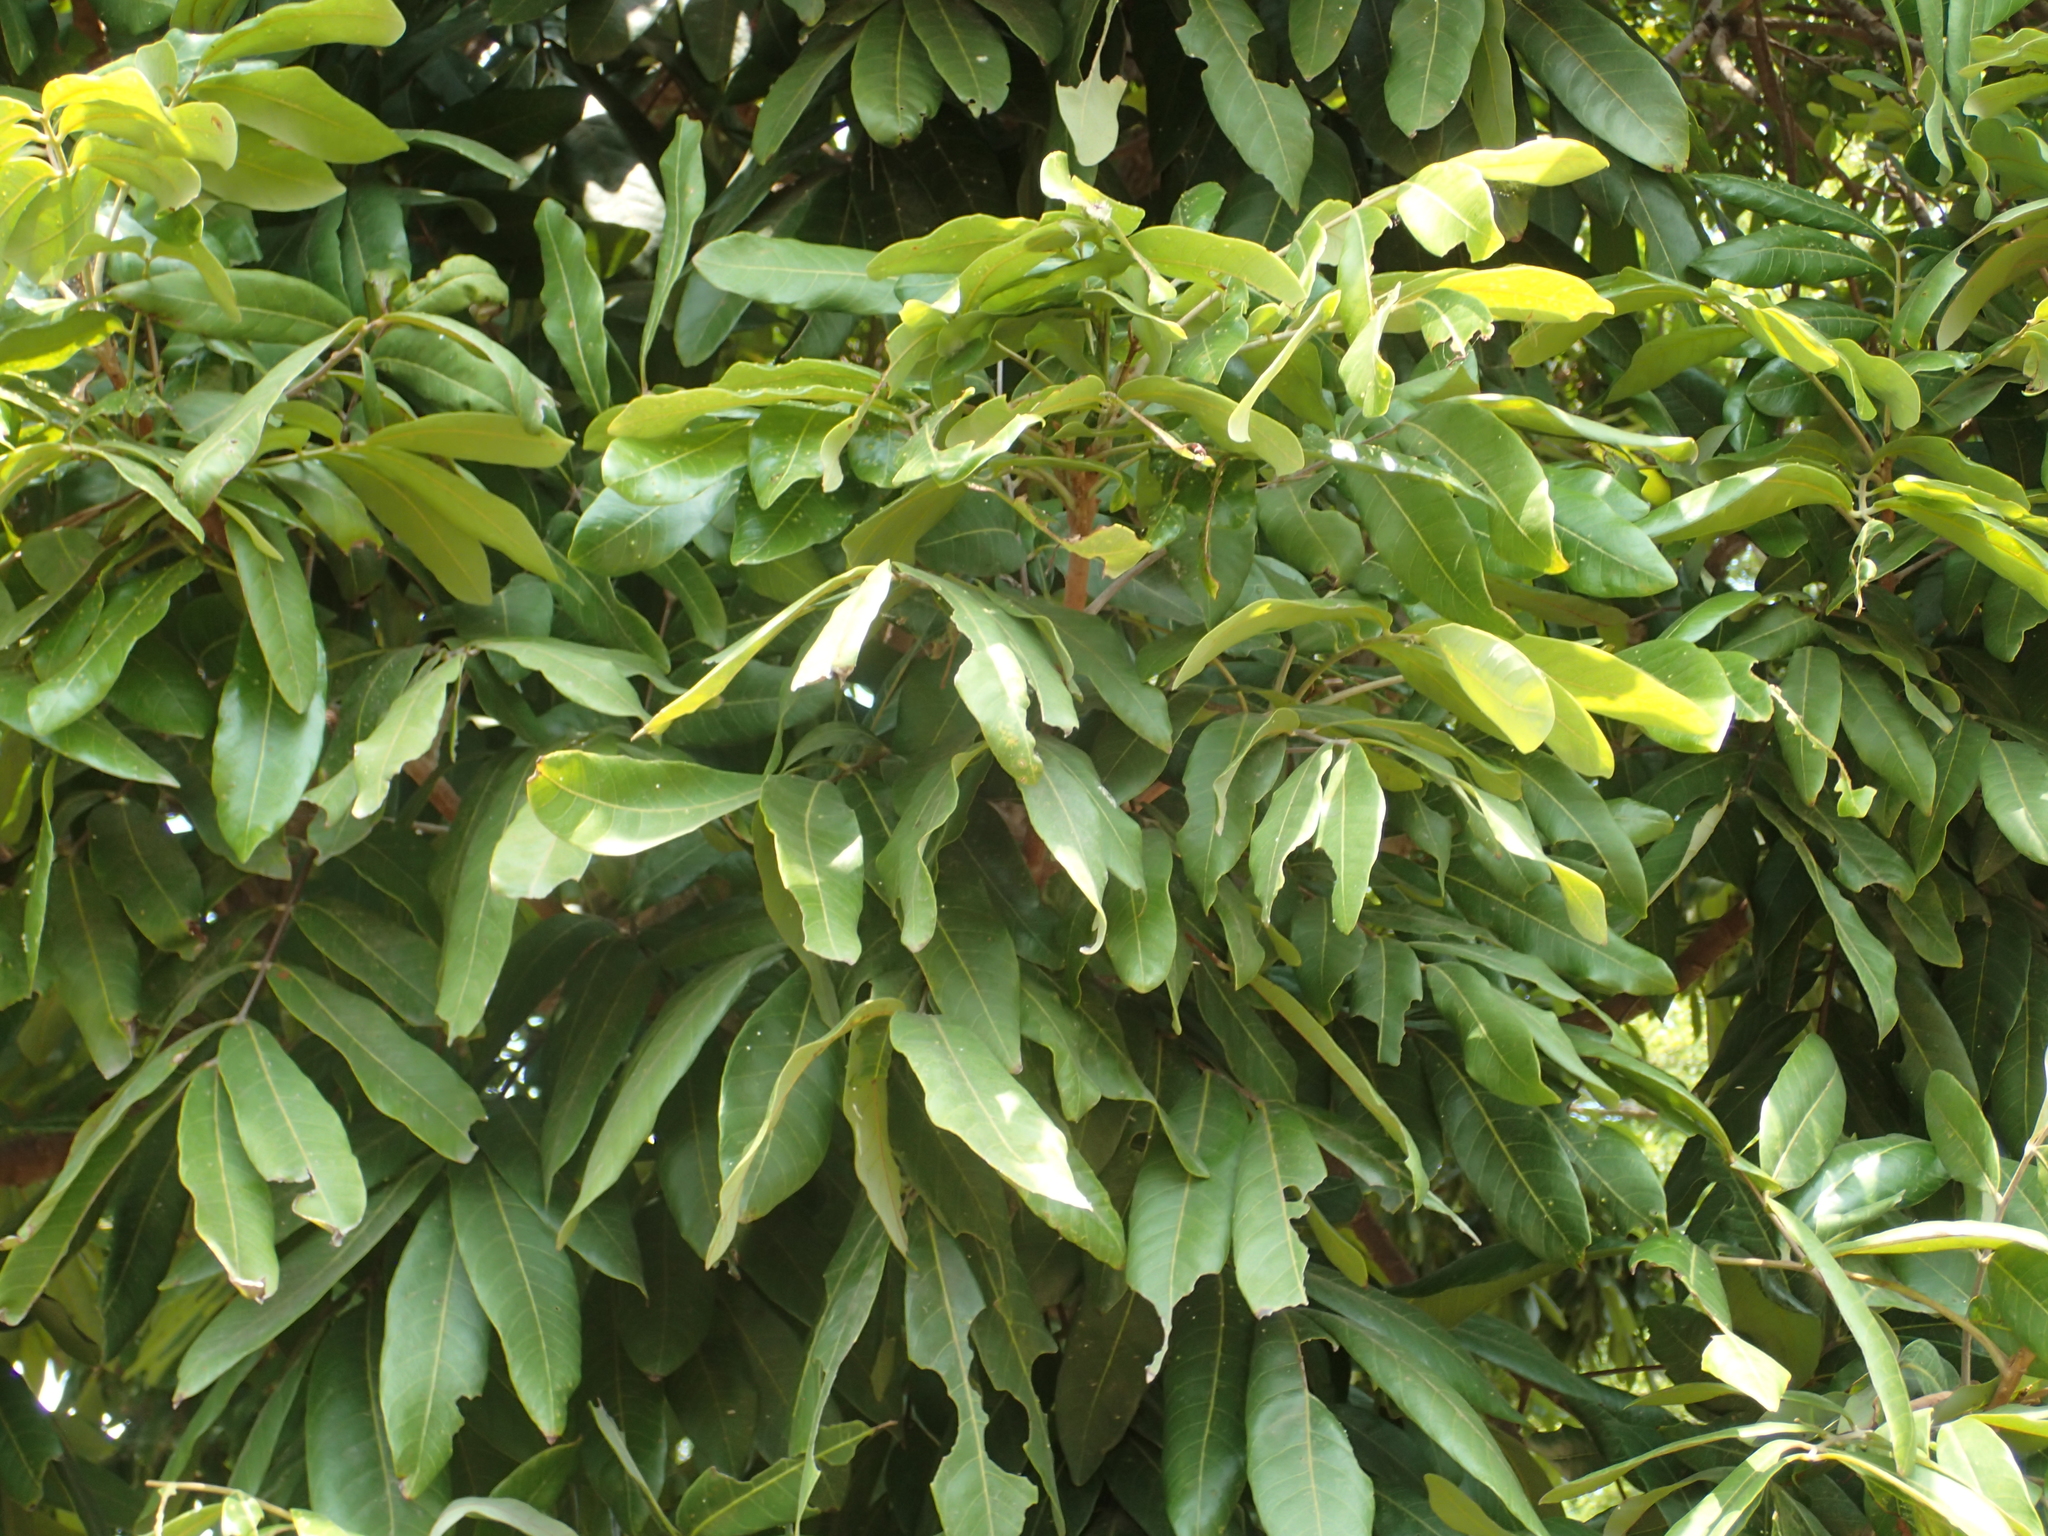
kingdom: Plantae
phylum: Tracheophyta
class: Magnoliopsida
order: Sapindales
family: Sapindaceae
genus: Dimocarpus
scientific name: Dimocarpus longan
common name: Longan
